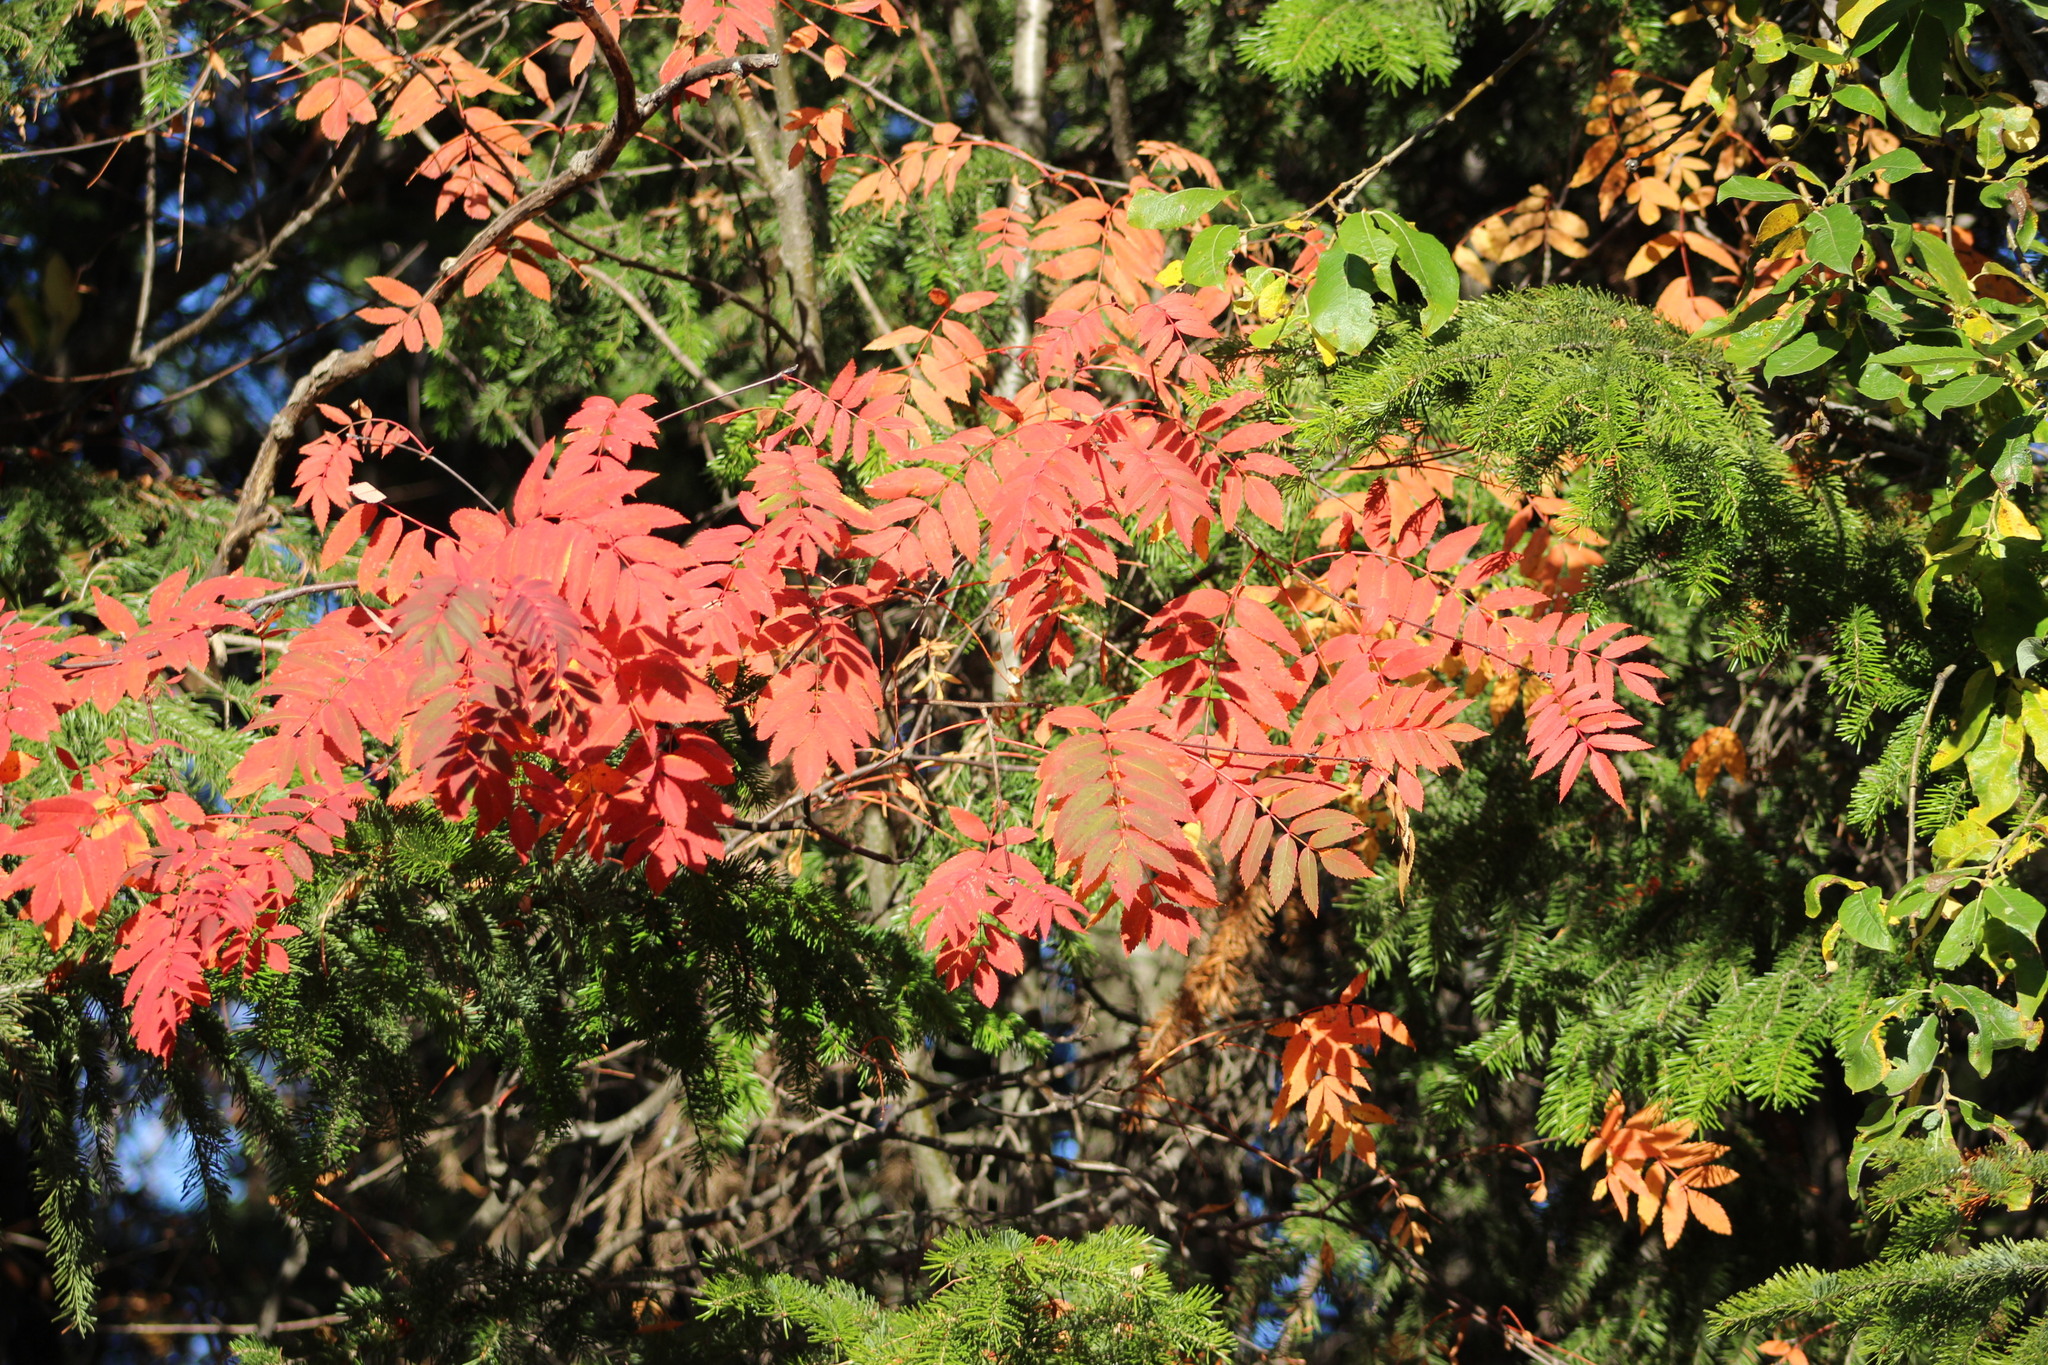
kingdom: Plantae
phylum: Tracheophyta
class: Magnoliopsida
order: Rosales
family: Rosaceae
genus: Sorbus
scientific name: Sorbus aucuparia
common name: Rowan
